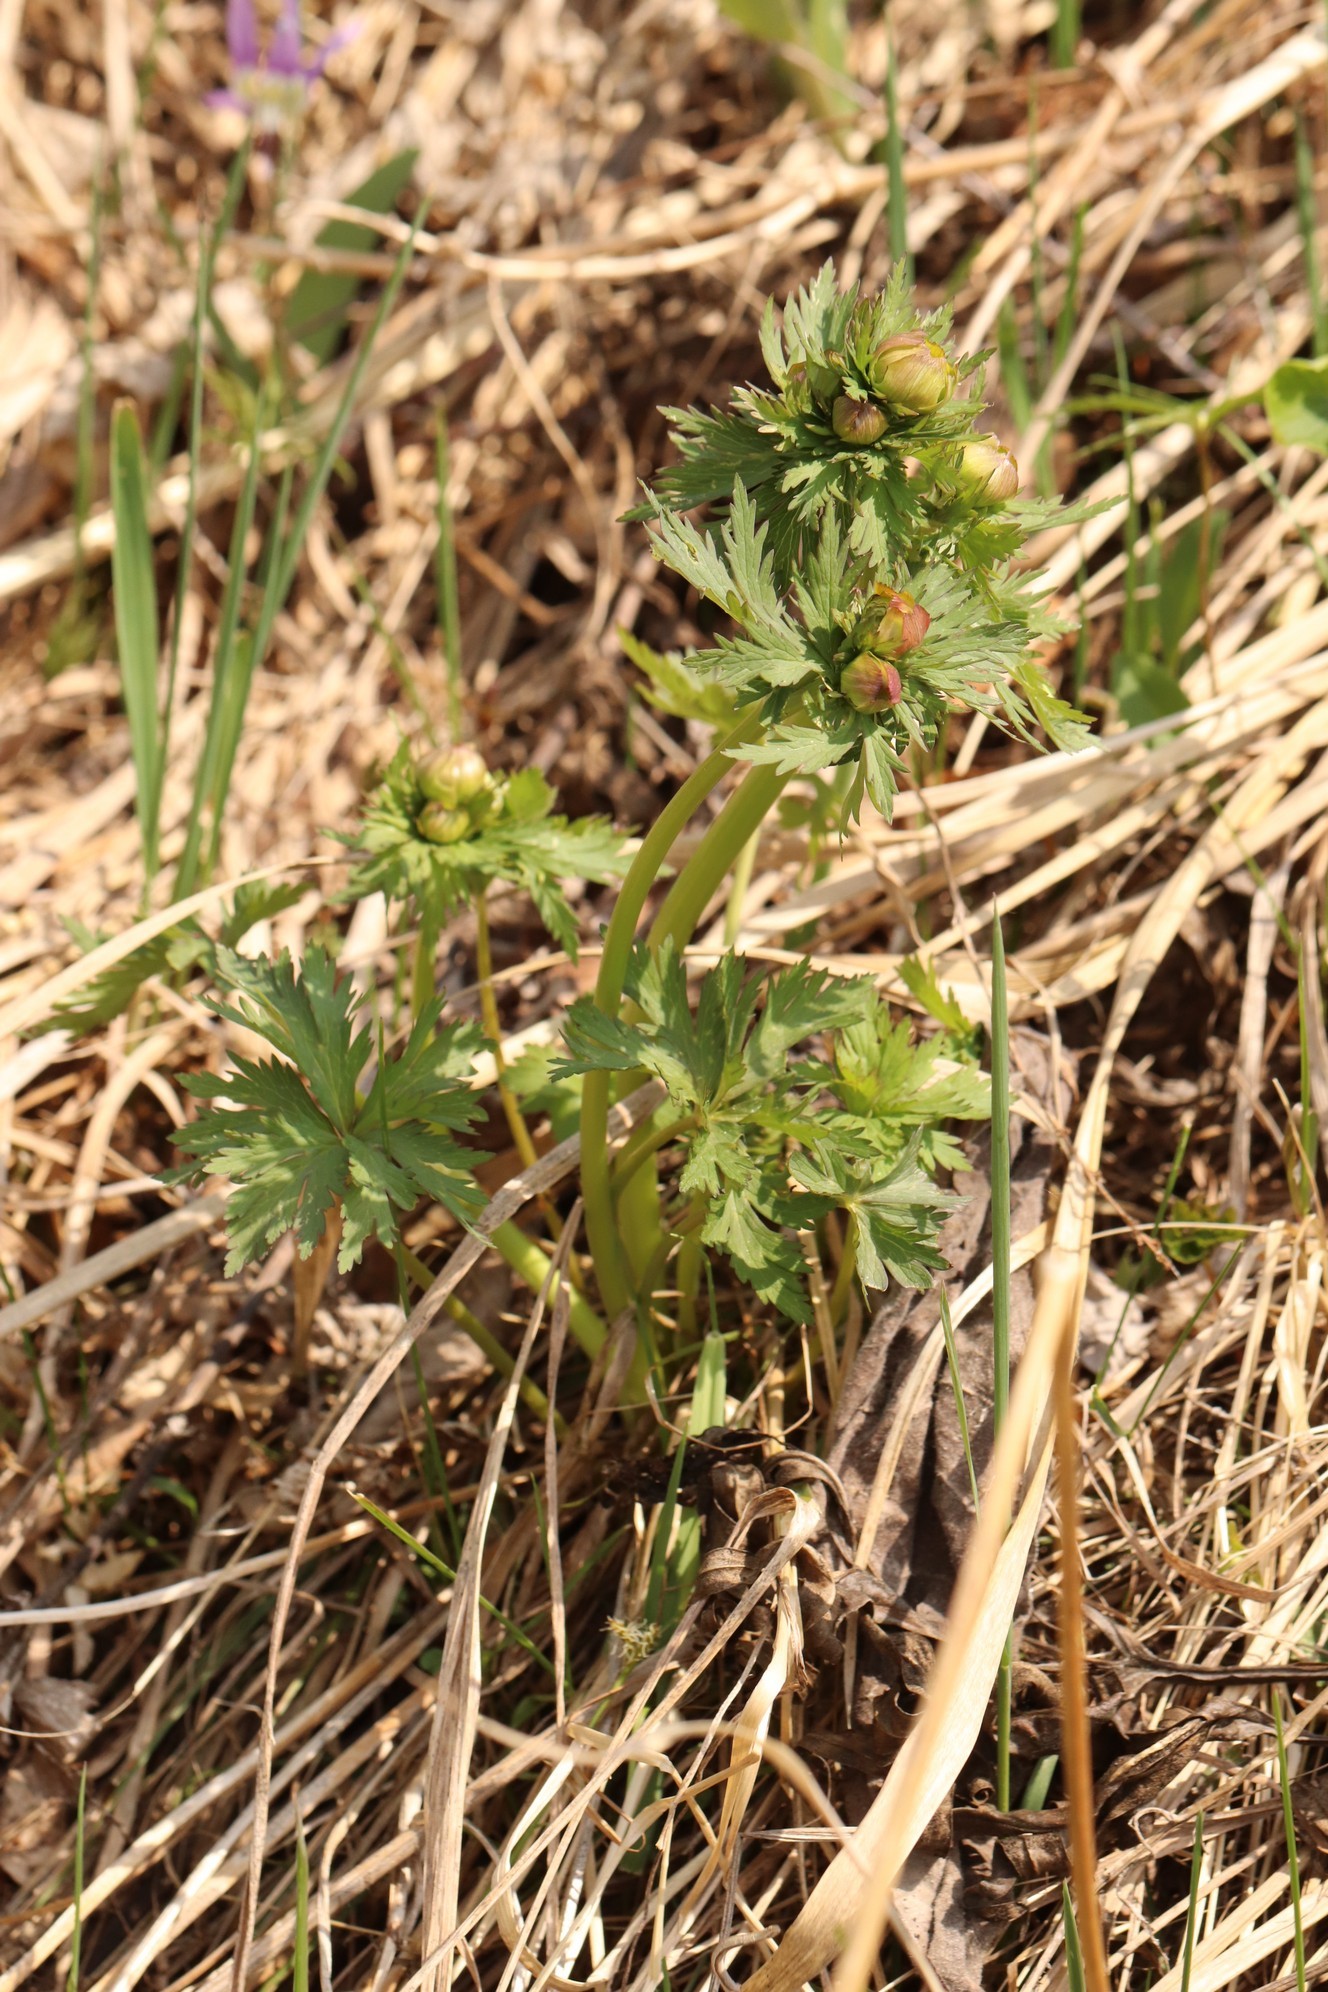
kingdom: Plantae
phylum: Tracheophyta
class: Magnoliopsida
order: Ranunculales
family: Ranunculaceae
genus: Trollius
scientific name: Trollius asiaticus
